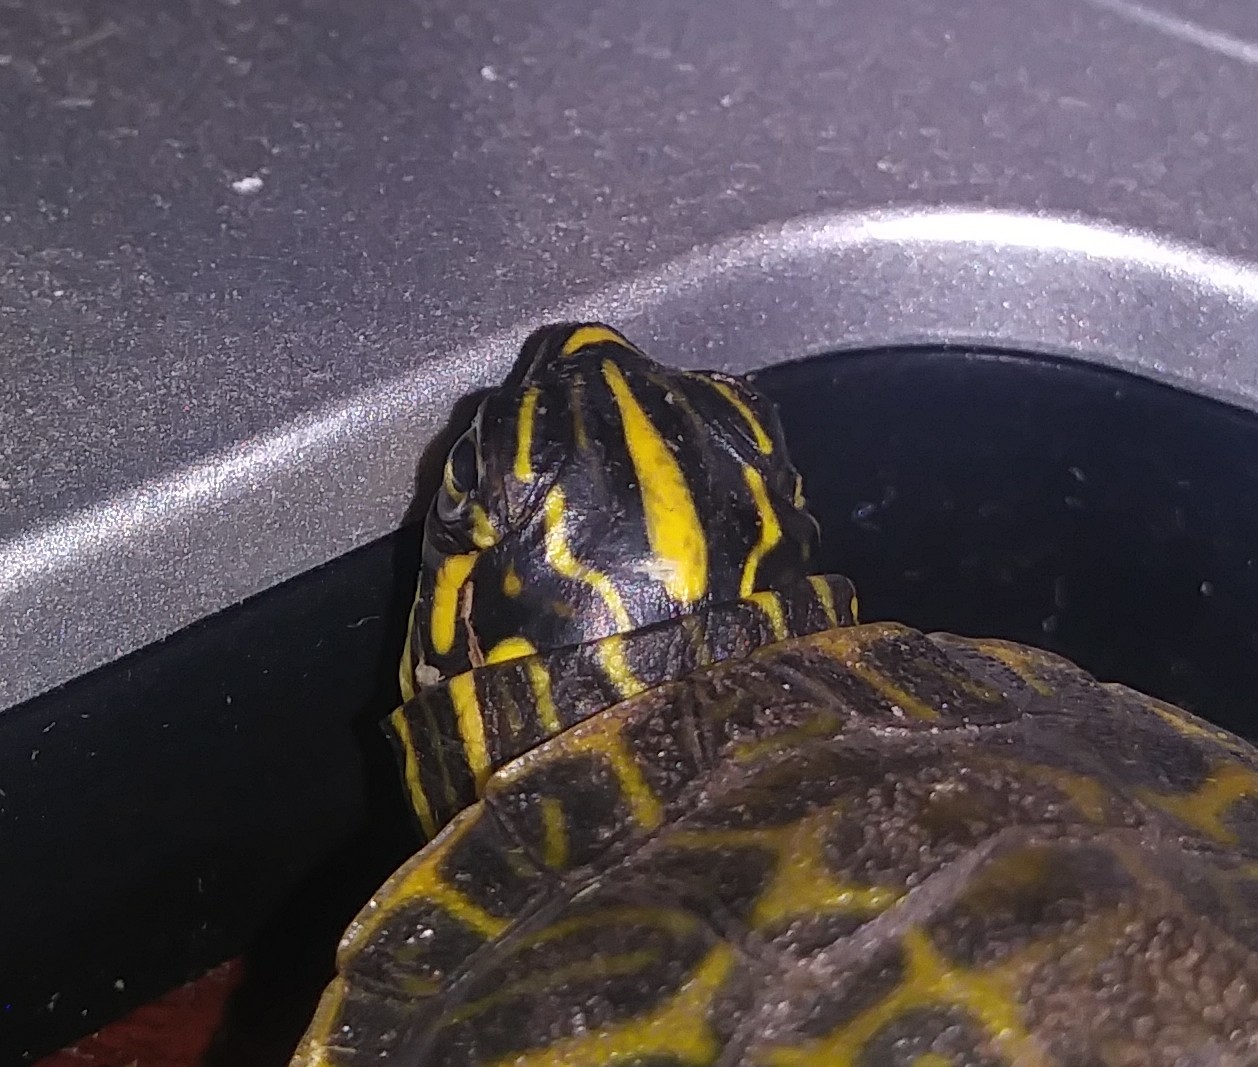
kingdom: Animalia
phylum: Chordata
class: Testudines
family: Emydidae
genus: Pseudemys
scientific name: Pseudemys nelsoni
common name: Florida red-bellied turtle
